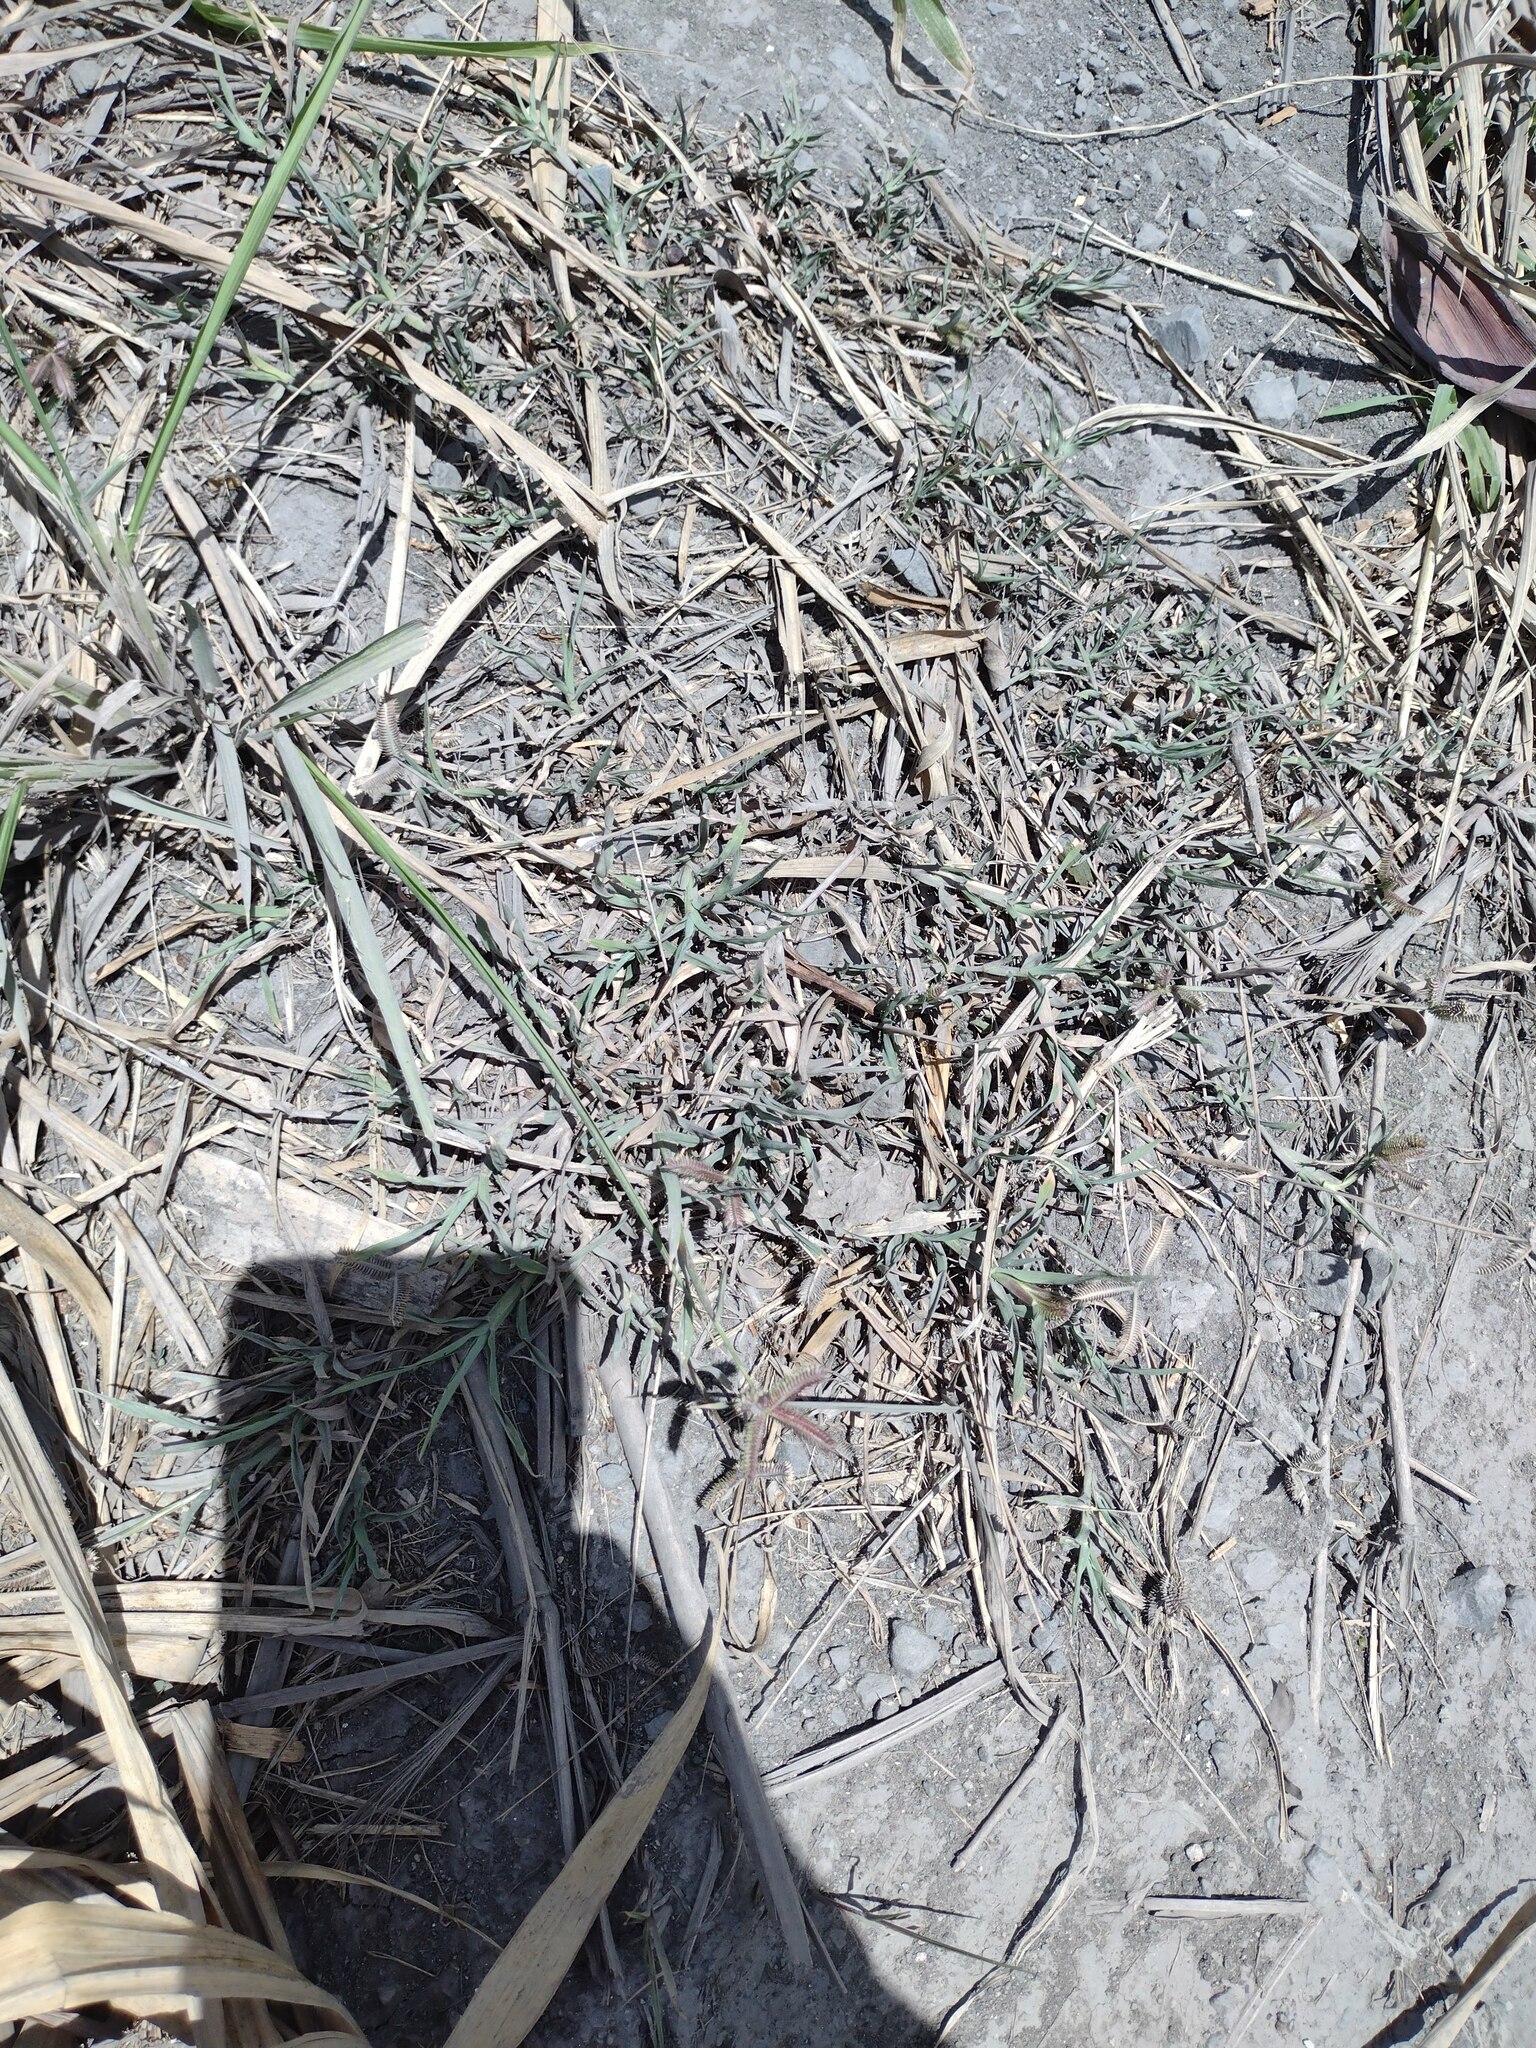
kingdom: Plantae
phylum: Tracheophyta
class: Liliopsida
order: Poales
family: Poaceae
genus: Dactyloctenium
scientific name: Dactyloctenium aegyptium
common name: Egyptian grass
